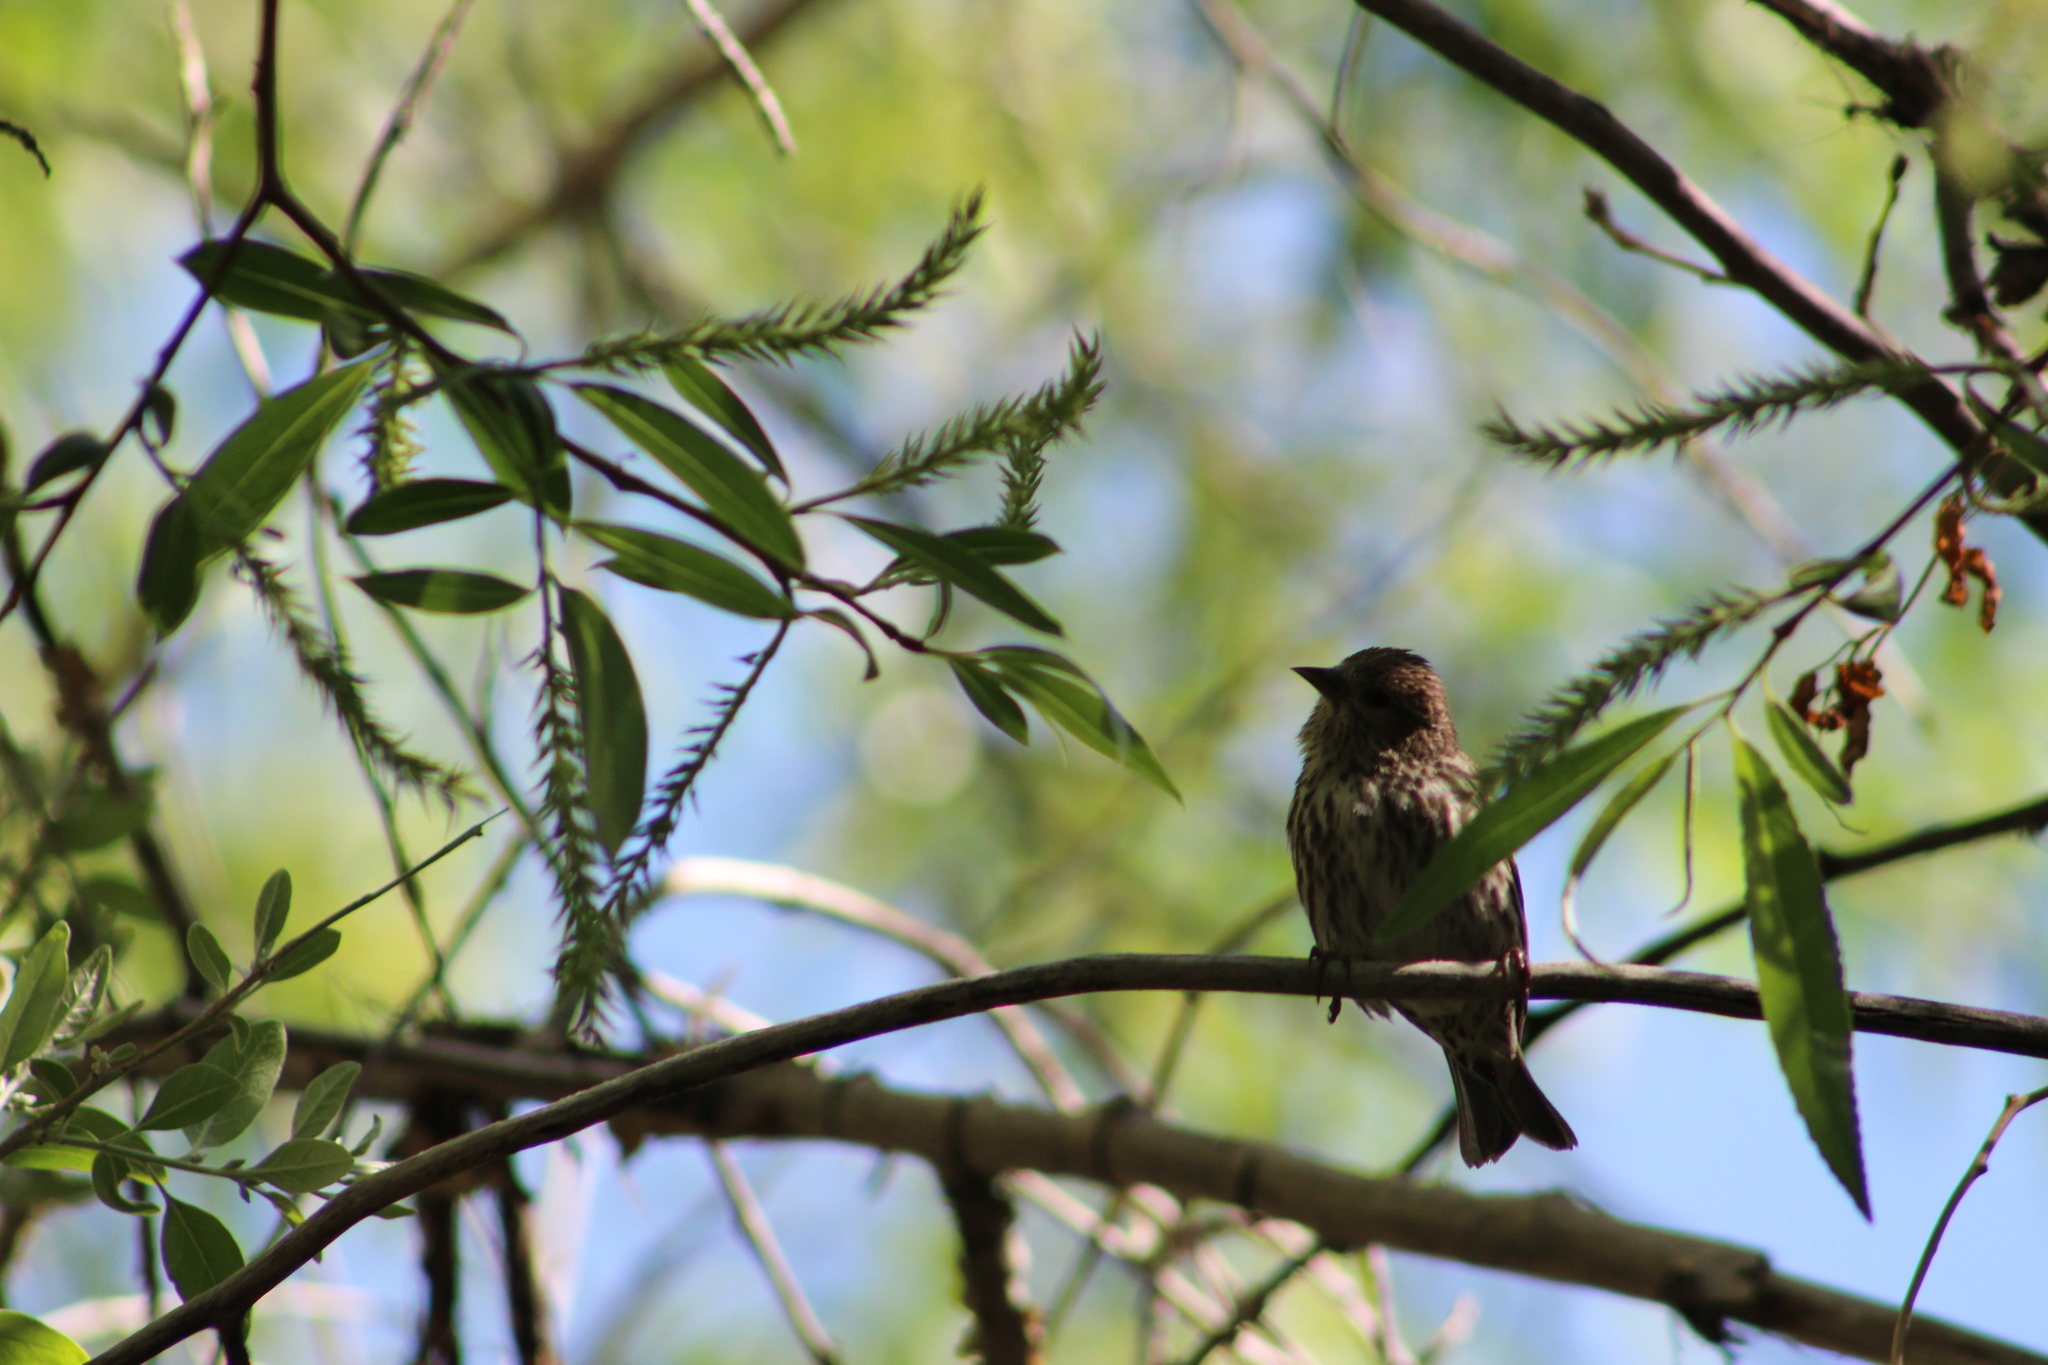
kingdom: Animalia
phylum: Chordata
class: Aves
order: Passeriformes
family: Fringillidae
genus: Spinus
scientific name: Spinus pinus
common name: Pine siskin
